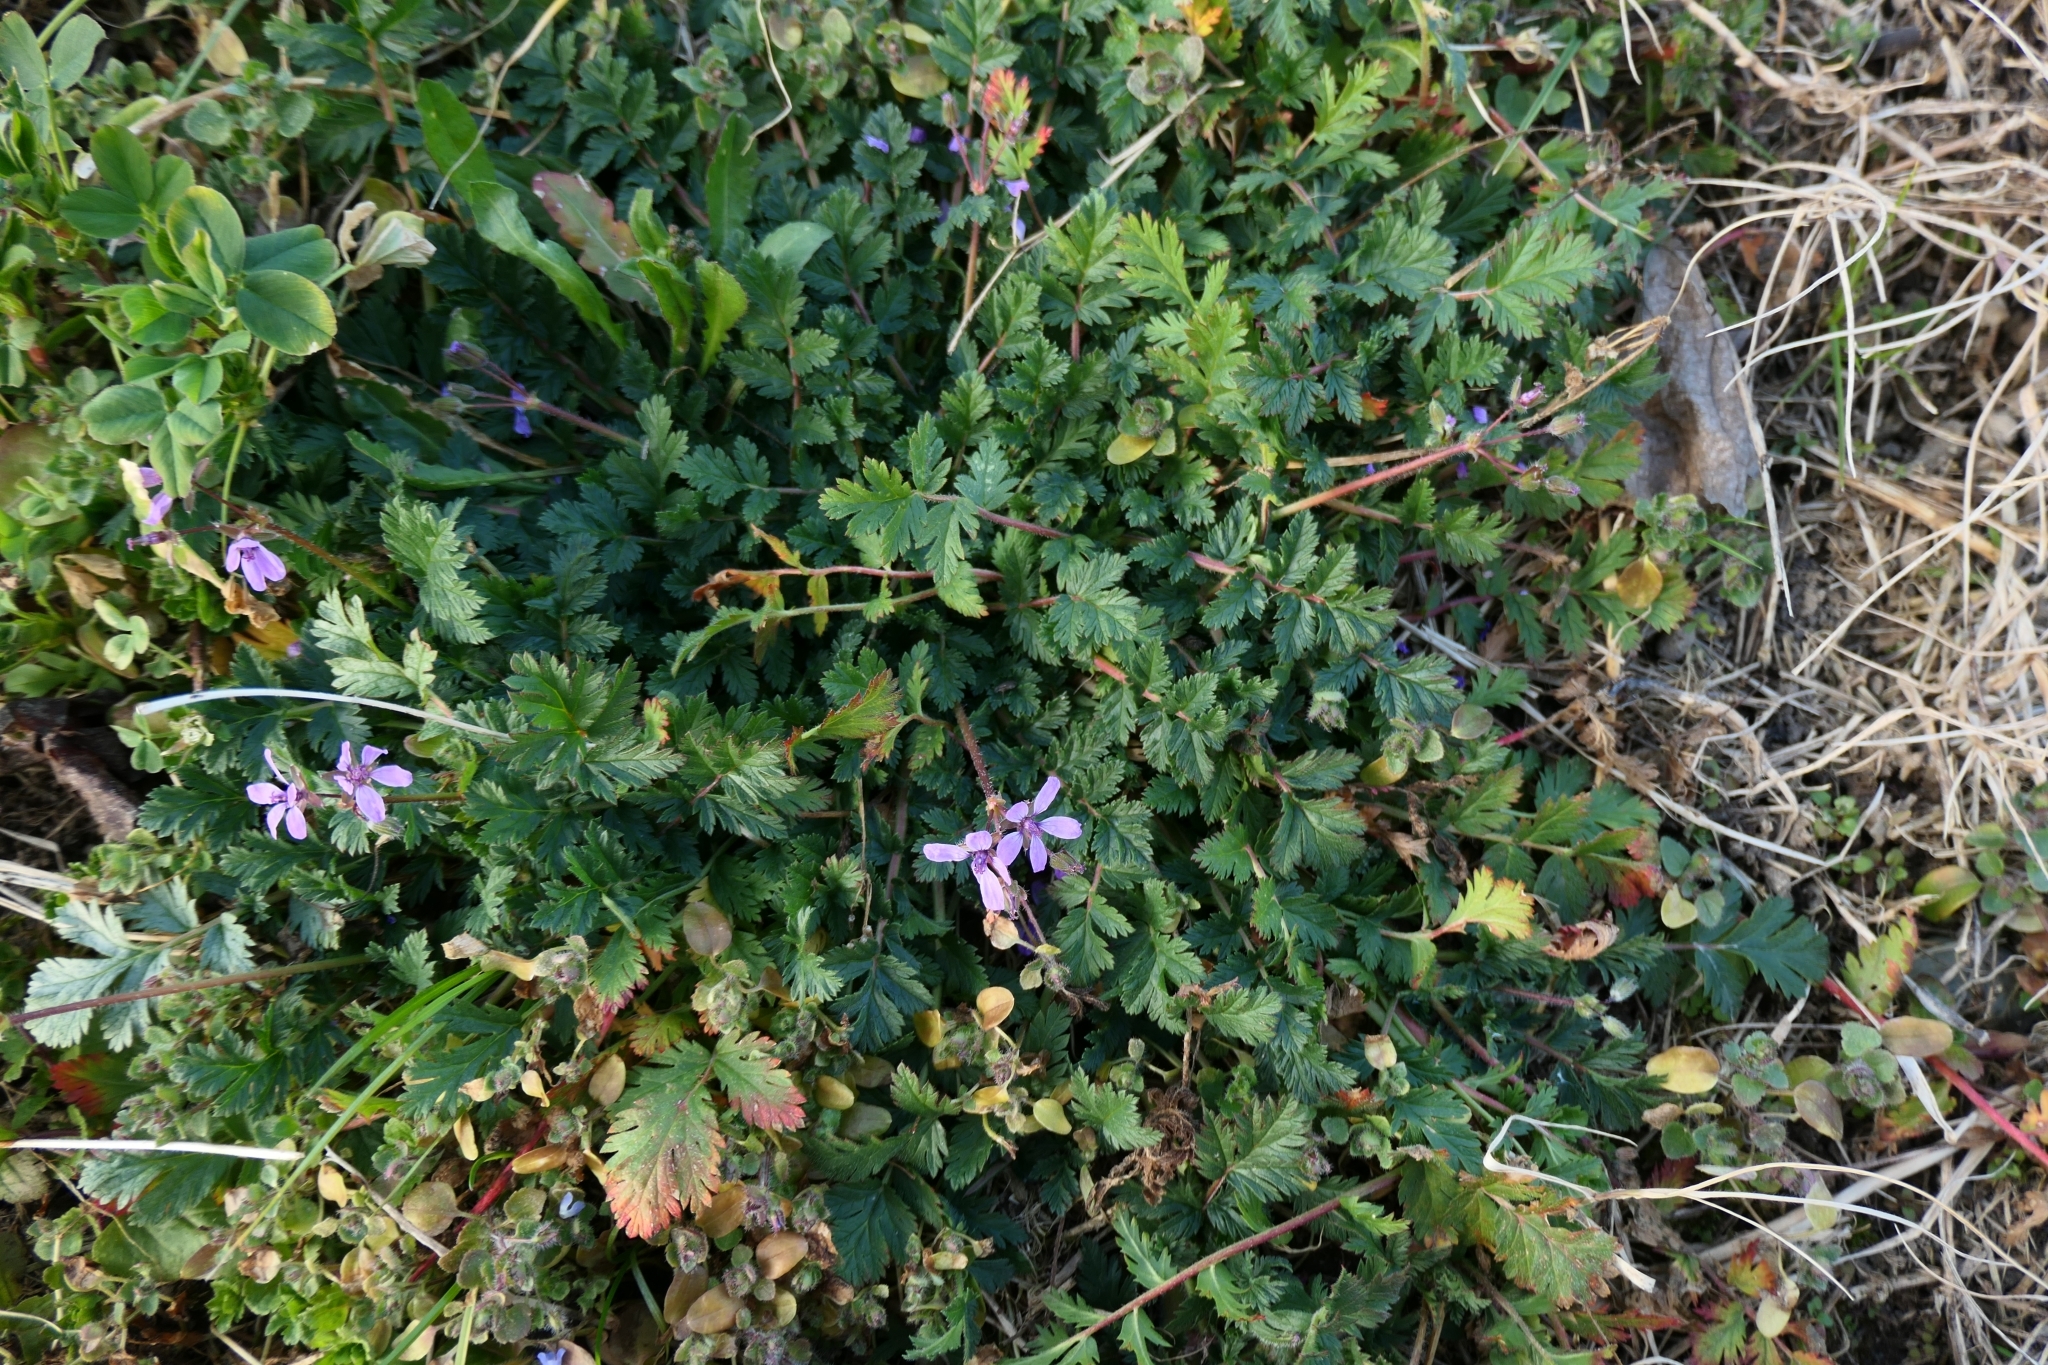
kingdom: Plantae
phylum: Tracheophyta
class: Magnoliopsida
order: Geraniales
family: Geraniaceae
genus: Erodium
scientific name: Erodium cicutarium
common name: Common stork's-bill
